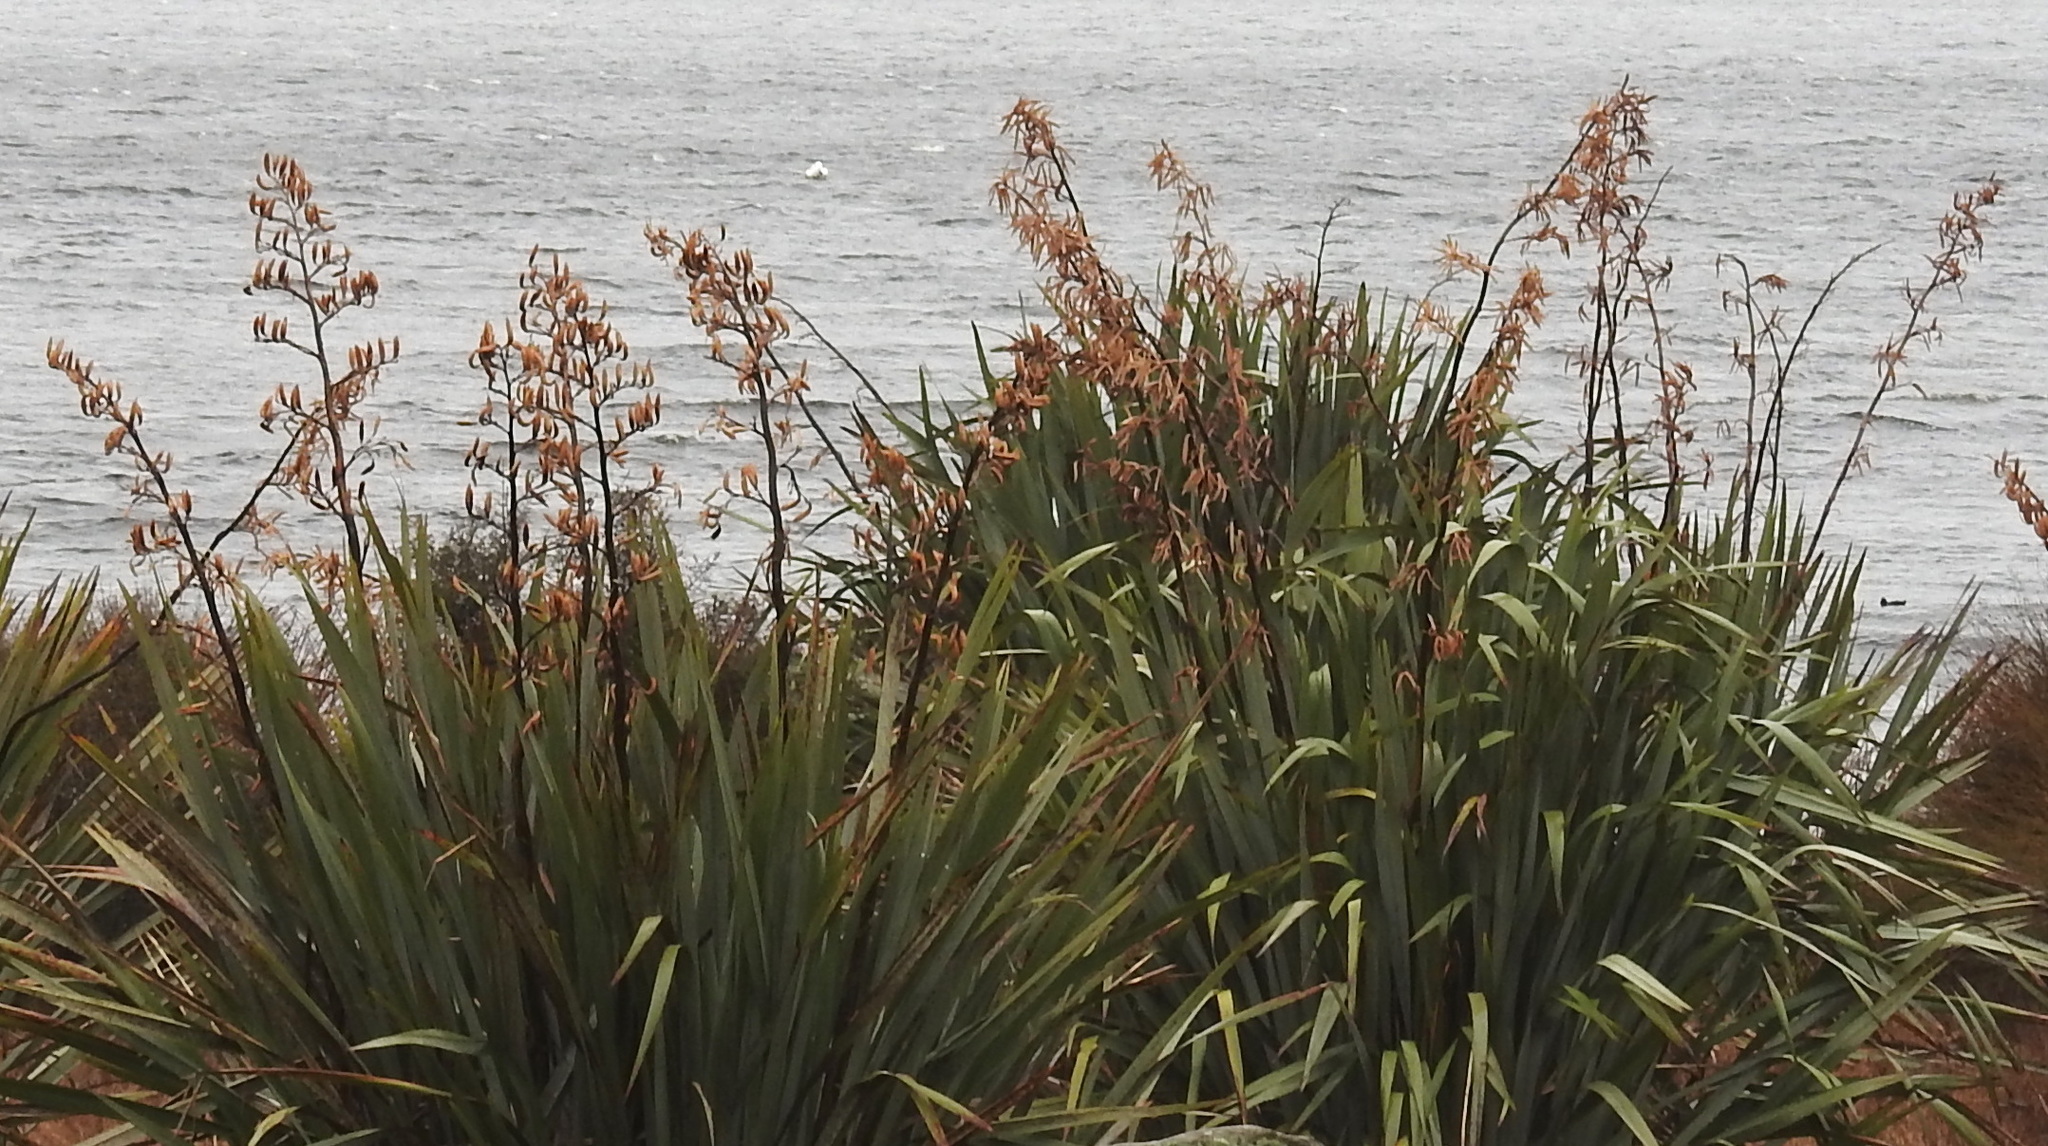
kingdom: Plantae
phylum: Tracheophyta
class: Liliopsida
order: Asparagales
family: Asphodelaceae
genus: Phormium
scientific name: Phormium
